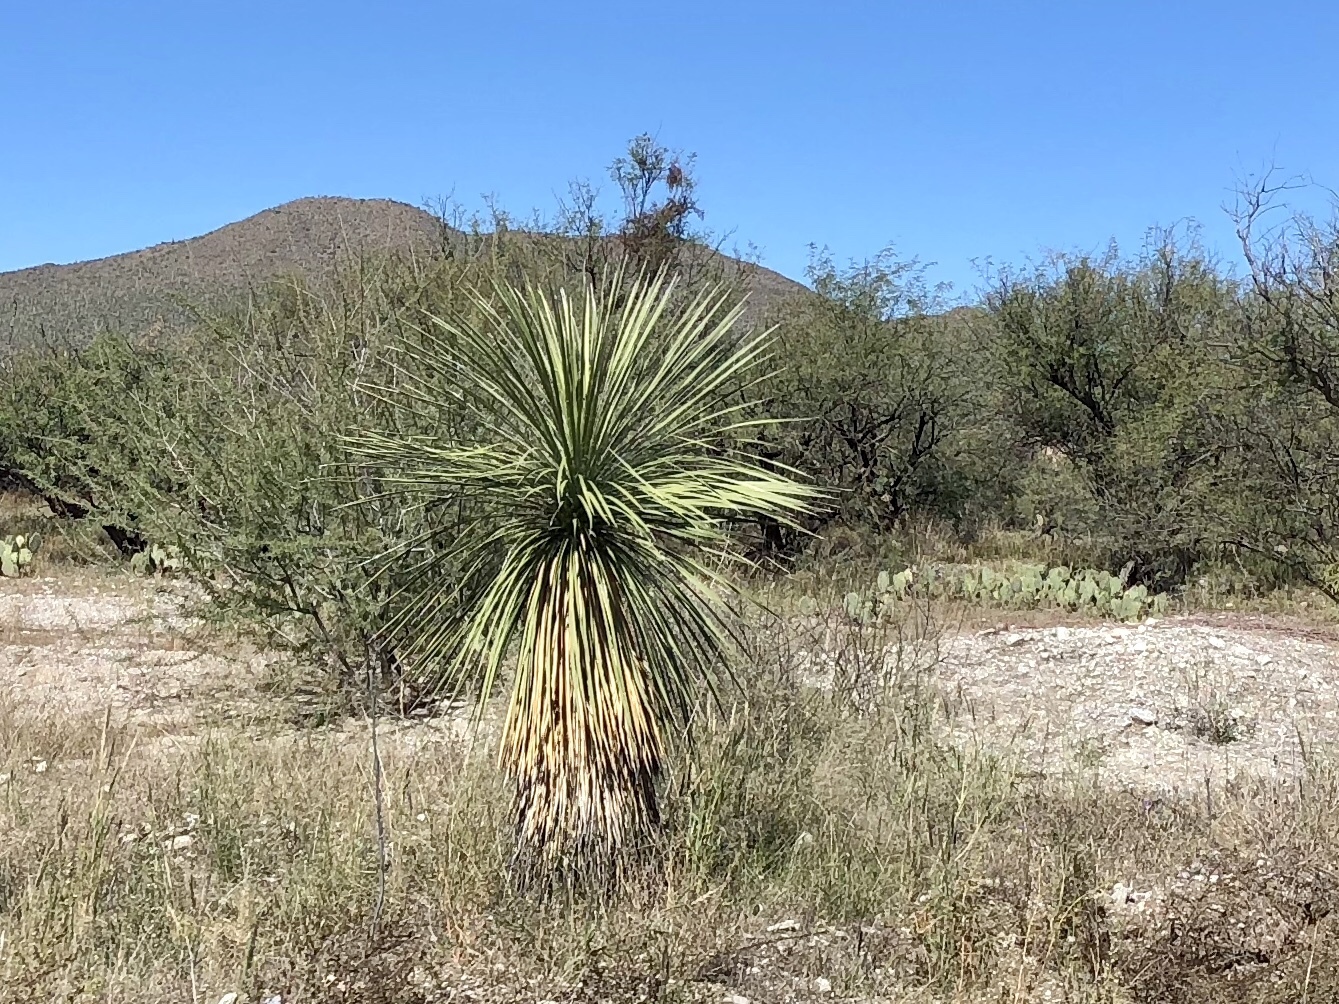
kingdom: Plantae
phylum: Tracheophyta
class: Liliopsida
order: Asparagales
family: Asparagaceae
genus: Yucca
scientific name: Yucca elata
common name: Palmella
